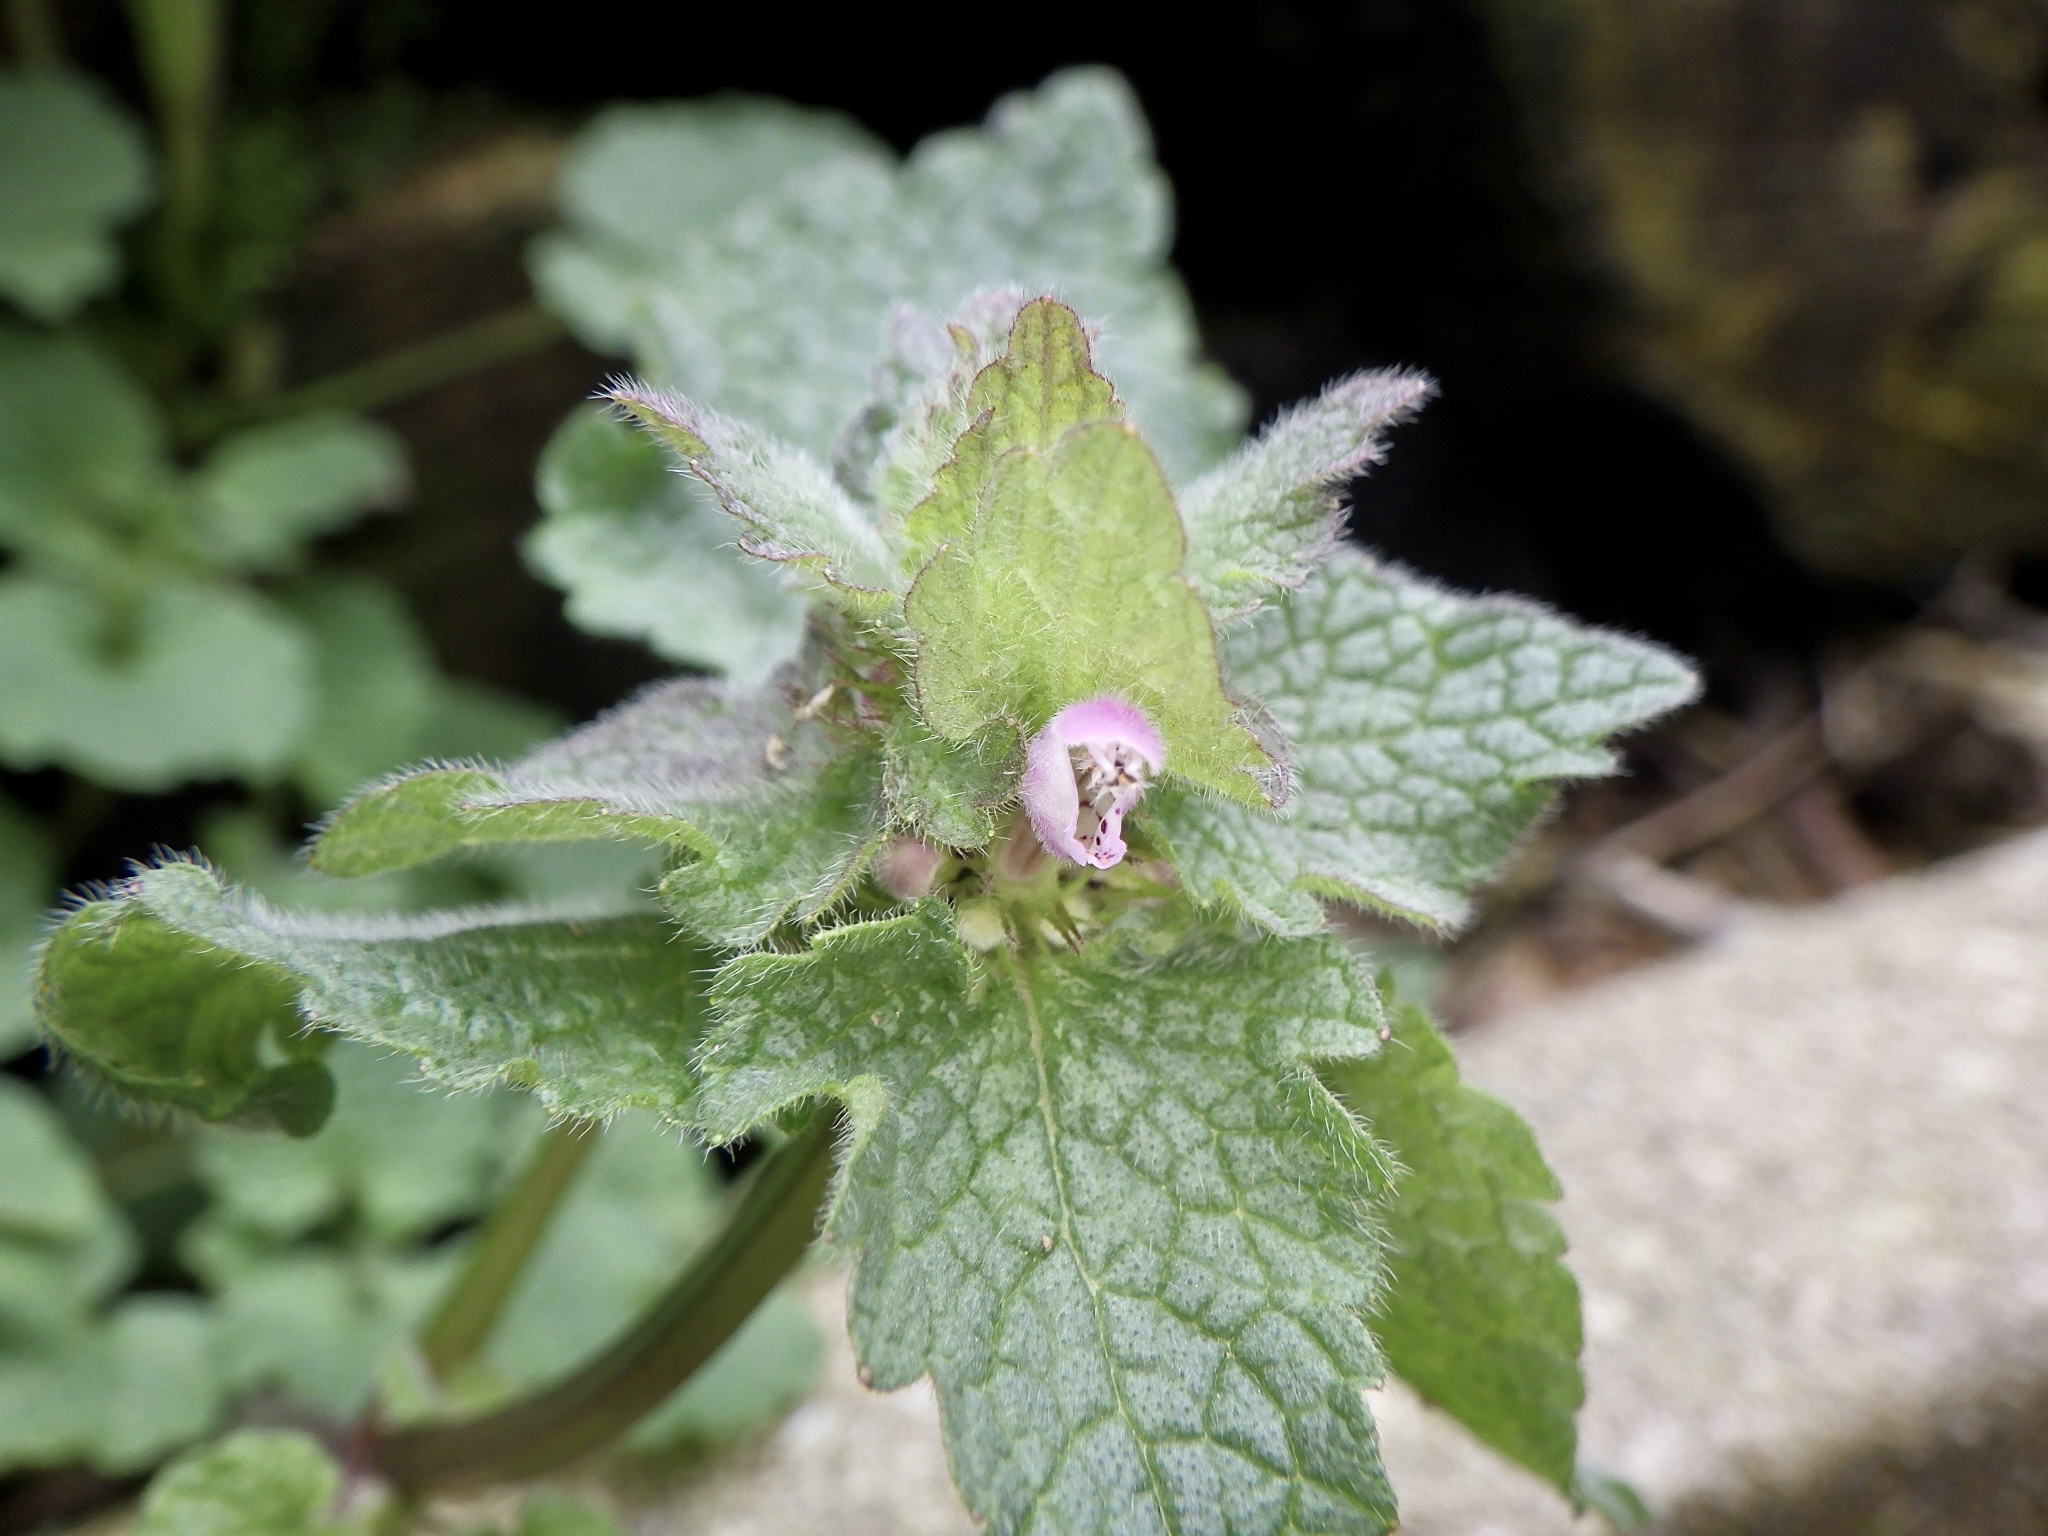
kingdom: Plantae
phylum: Tracheophyta
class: Magnoliopsida
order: Lamiales
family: Lamiaceae
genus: Lamium
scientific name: Lamium purpureum
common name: Red dead-nettle
